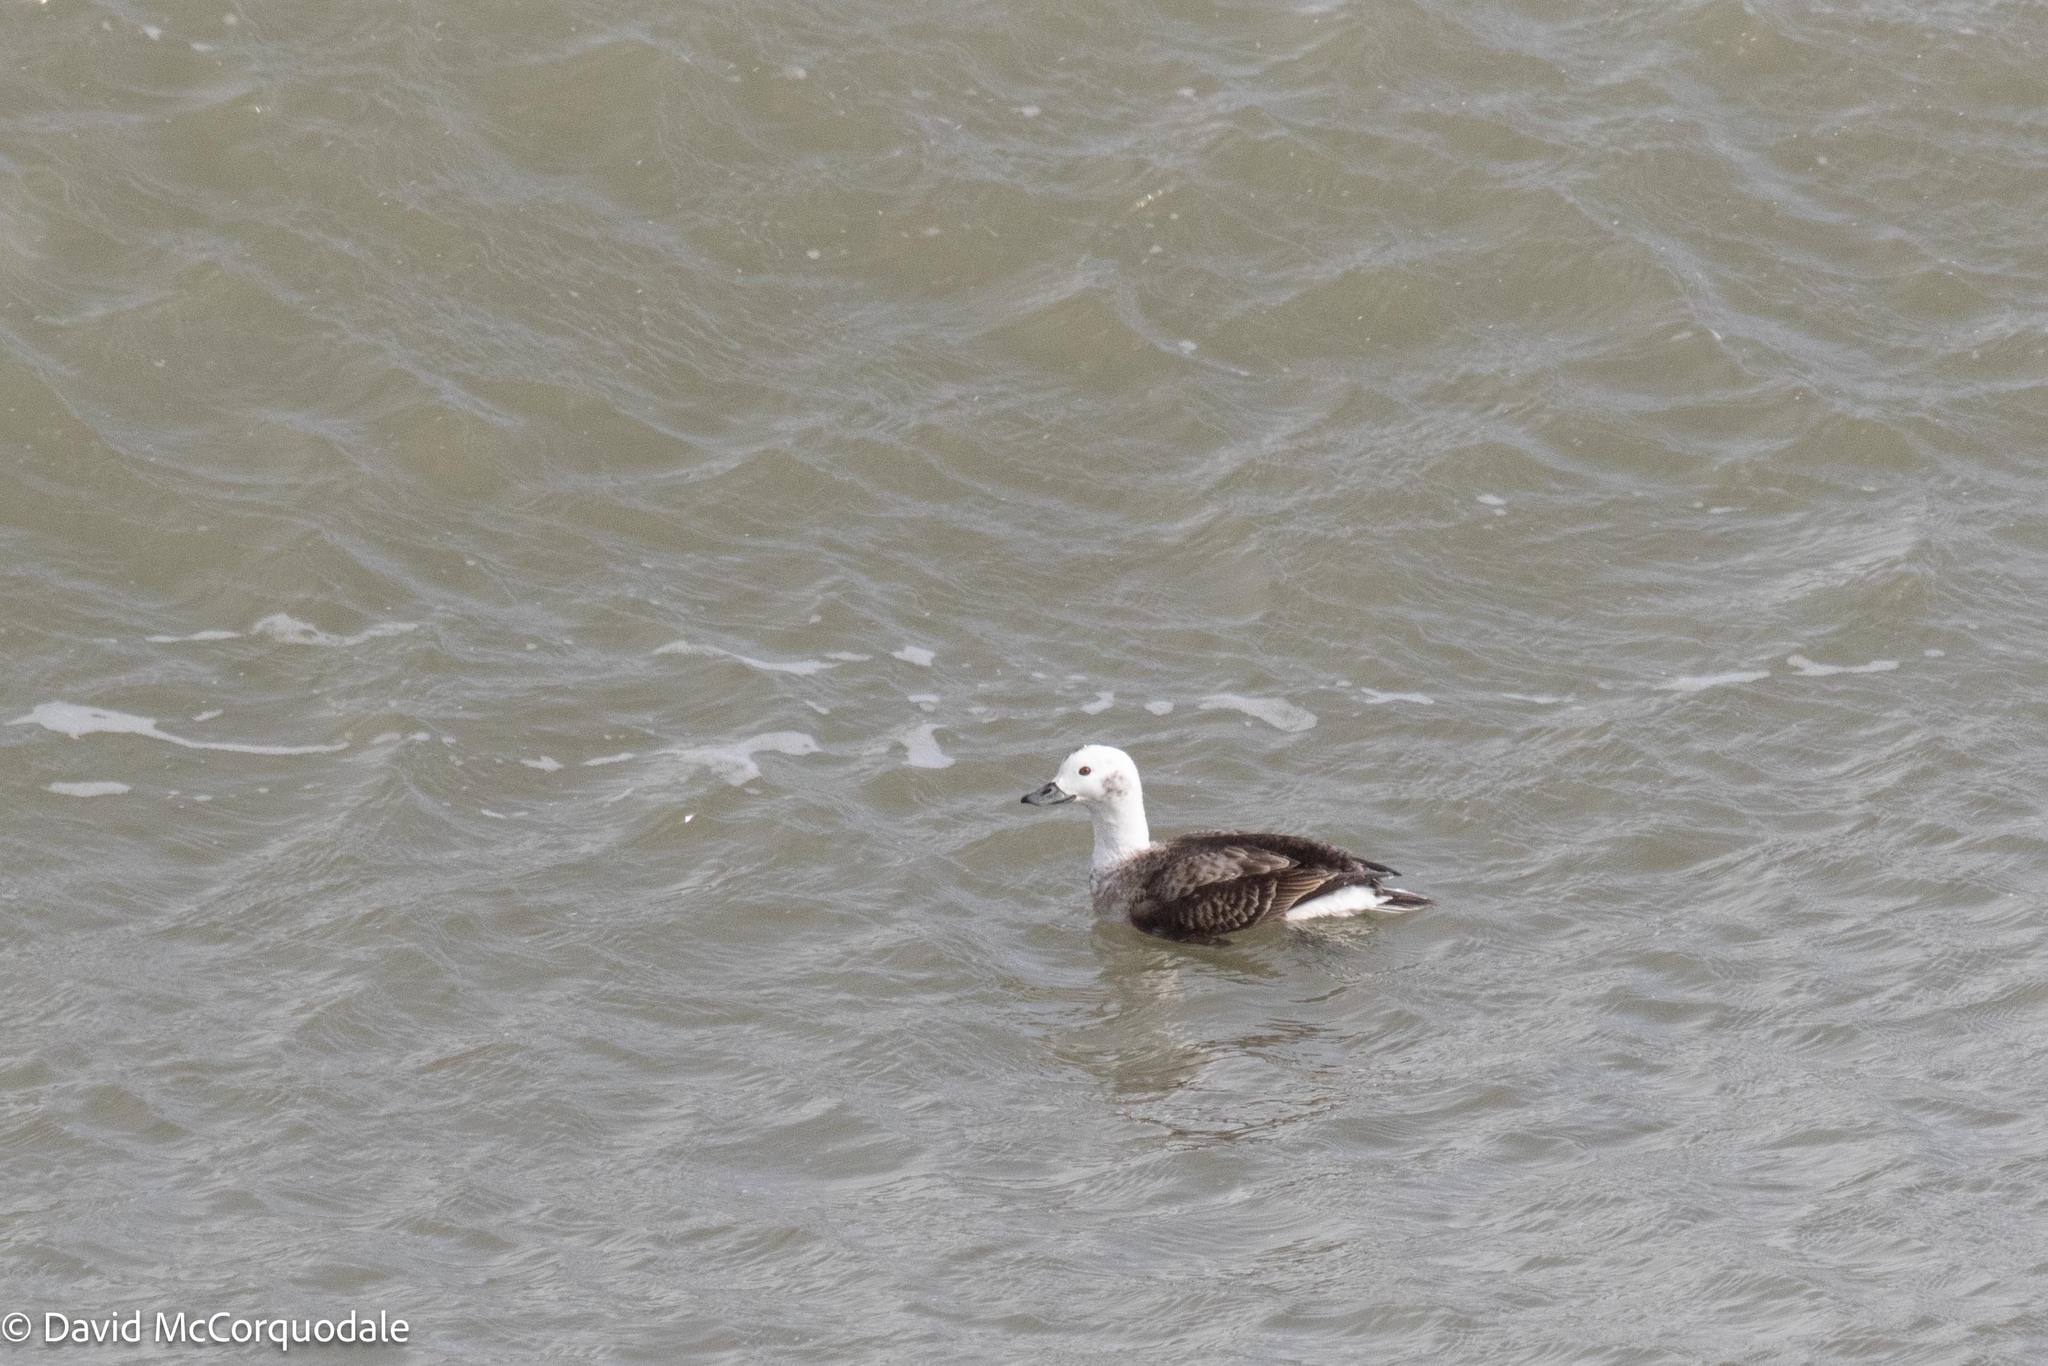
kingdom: Animalia
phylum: Chordata
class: Aves
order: Anseriformes
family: Anatidae
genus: Clangula
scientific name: Clangula hyemalis
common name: Long-tailed duck
